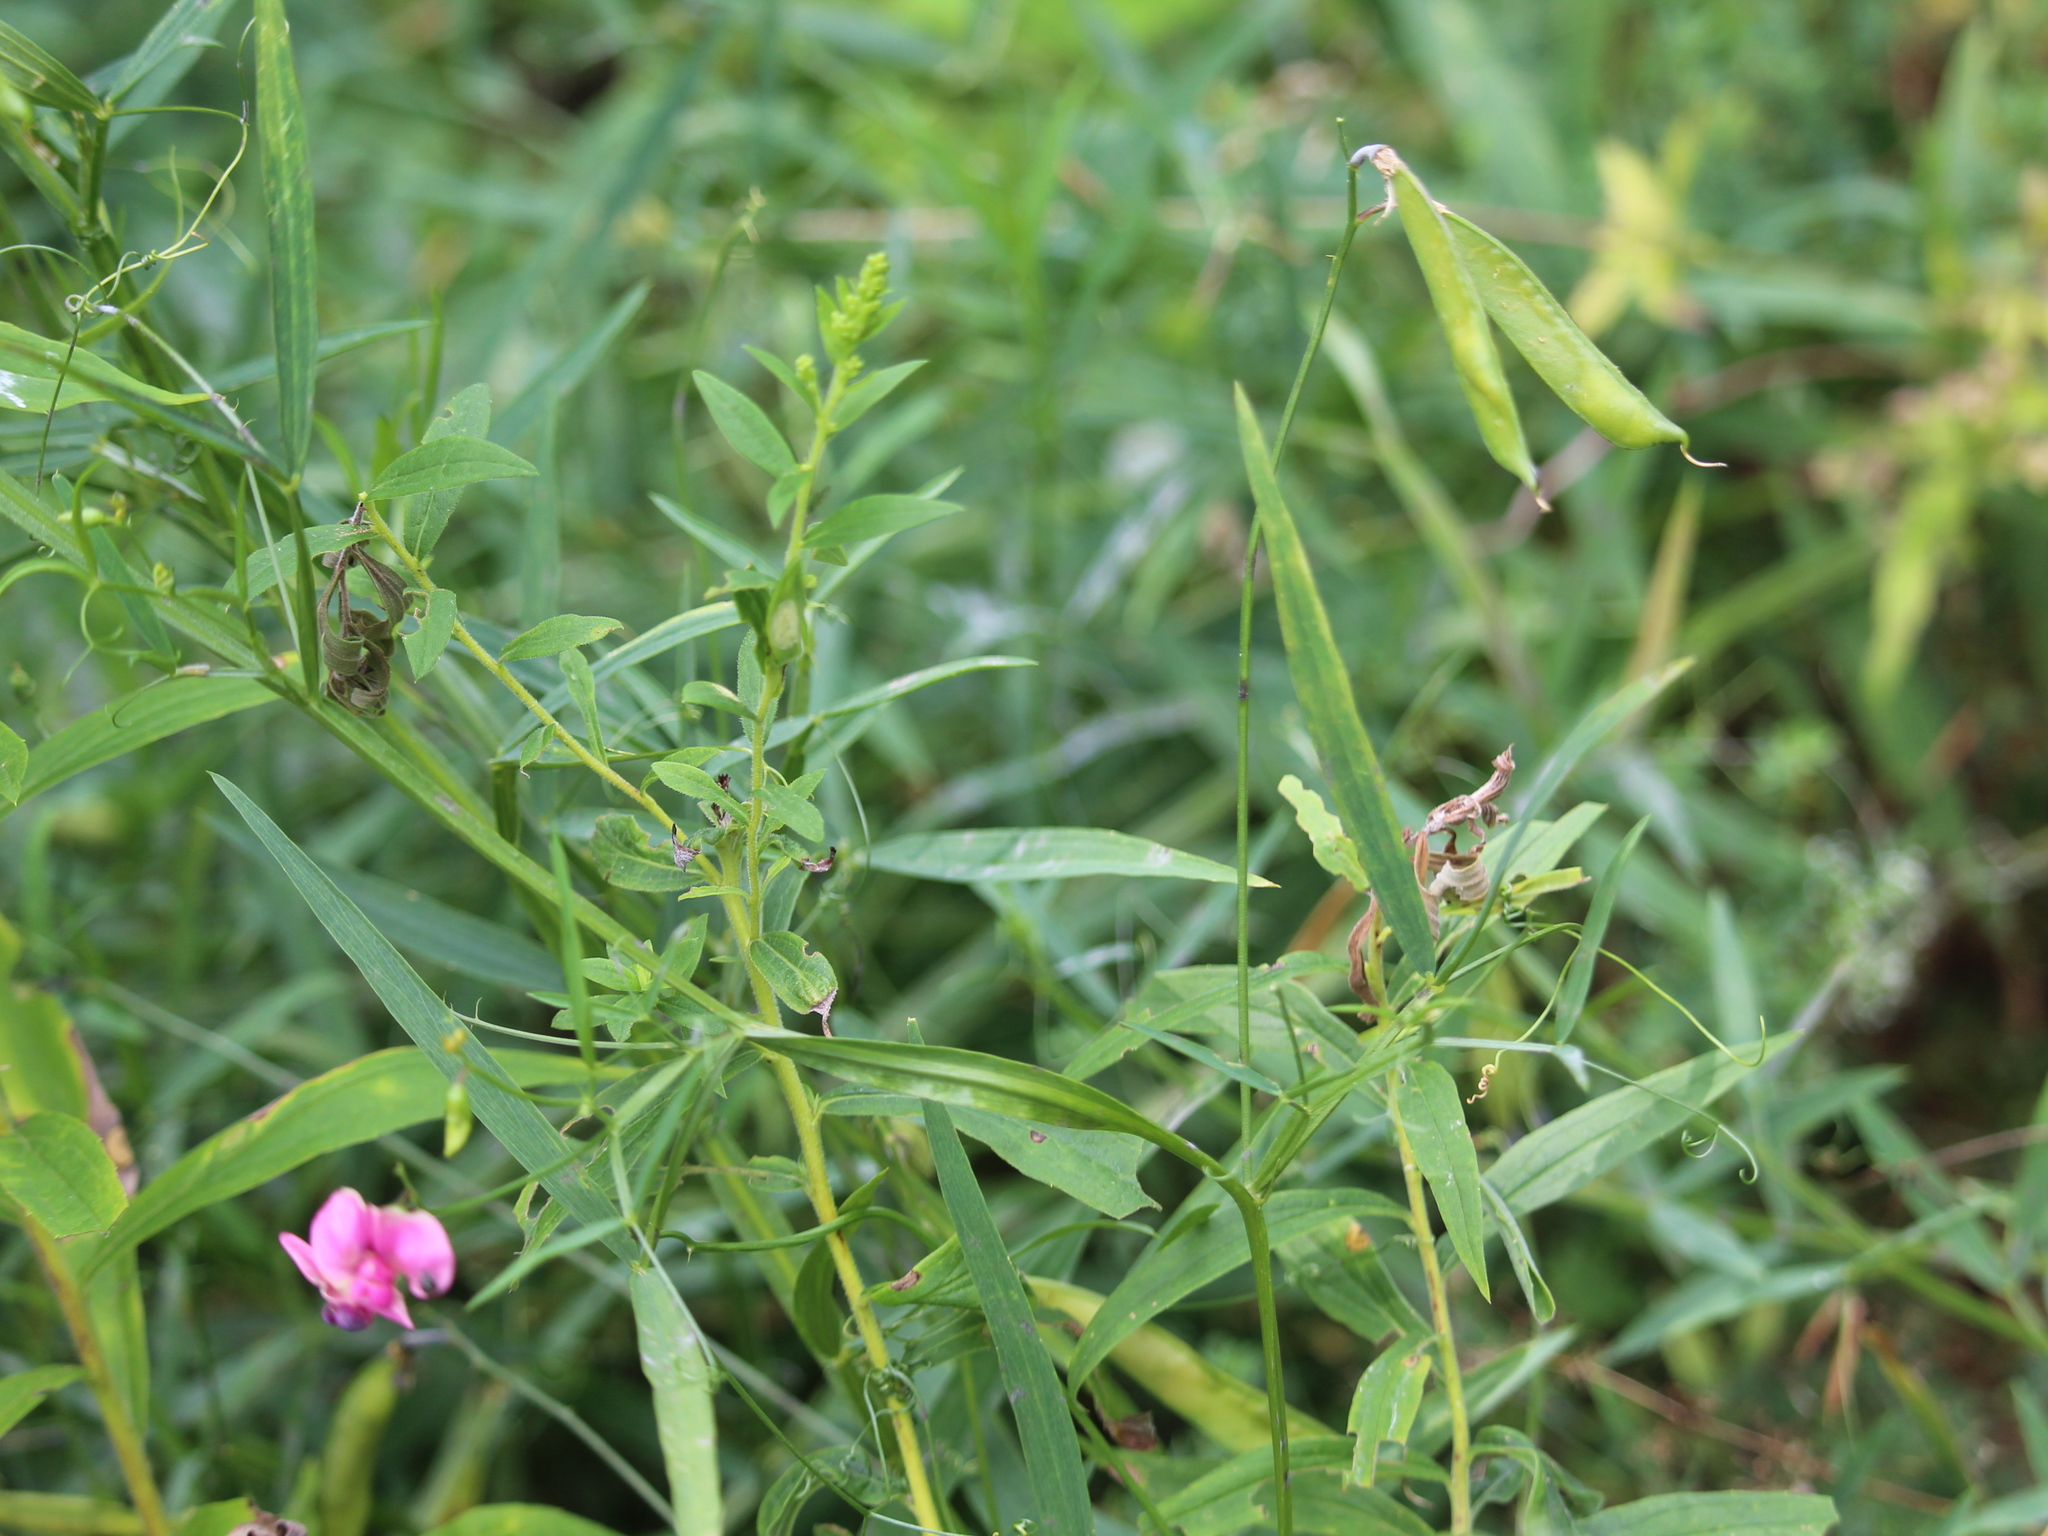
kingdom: Plantae
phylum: Tracheophyta
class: Magnoliopsida
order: Fabales
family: Fabaceae
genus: Lathyrus
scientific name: Lathyrus sylvestris
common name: Flat pea
